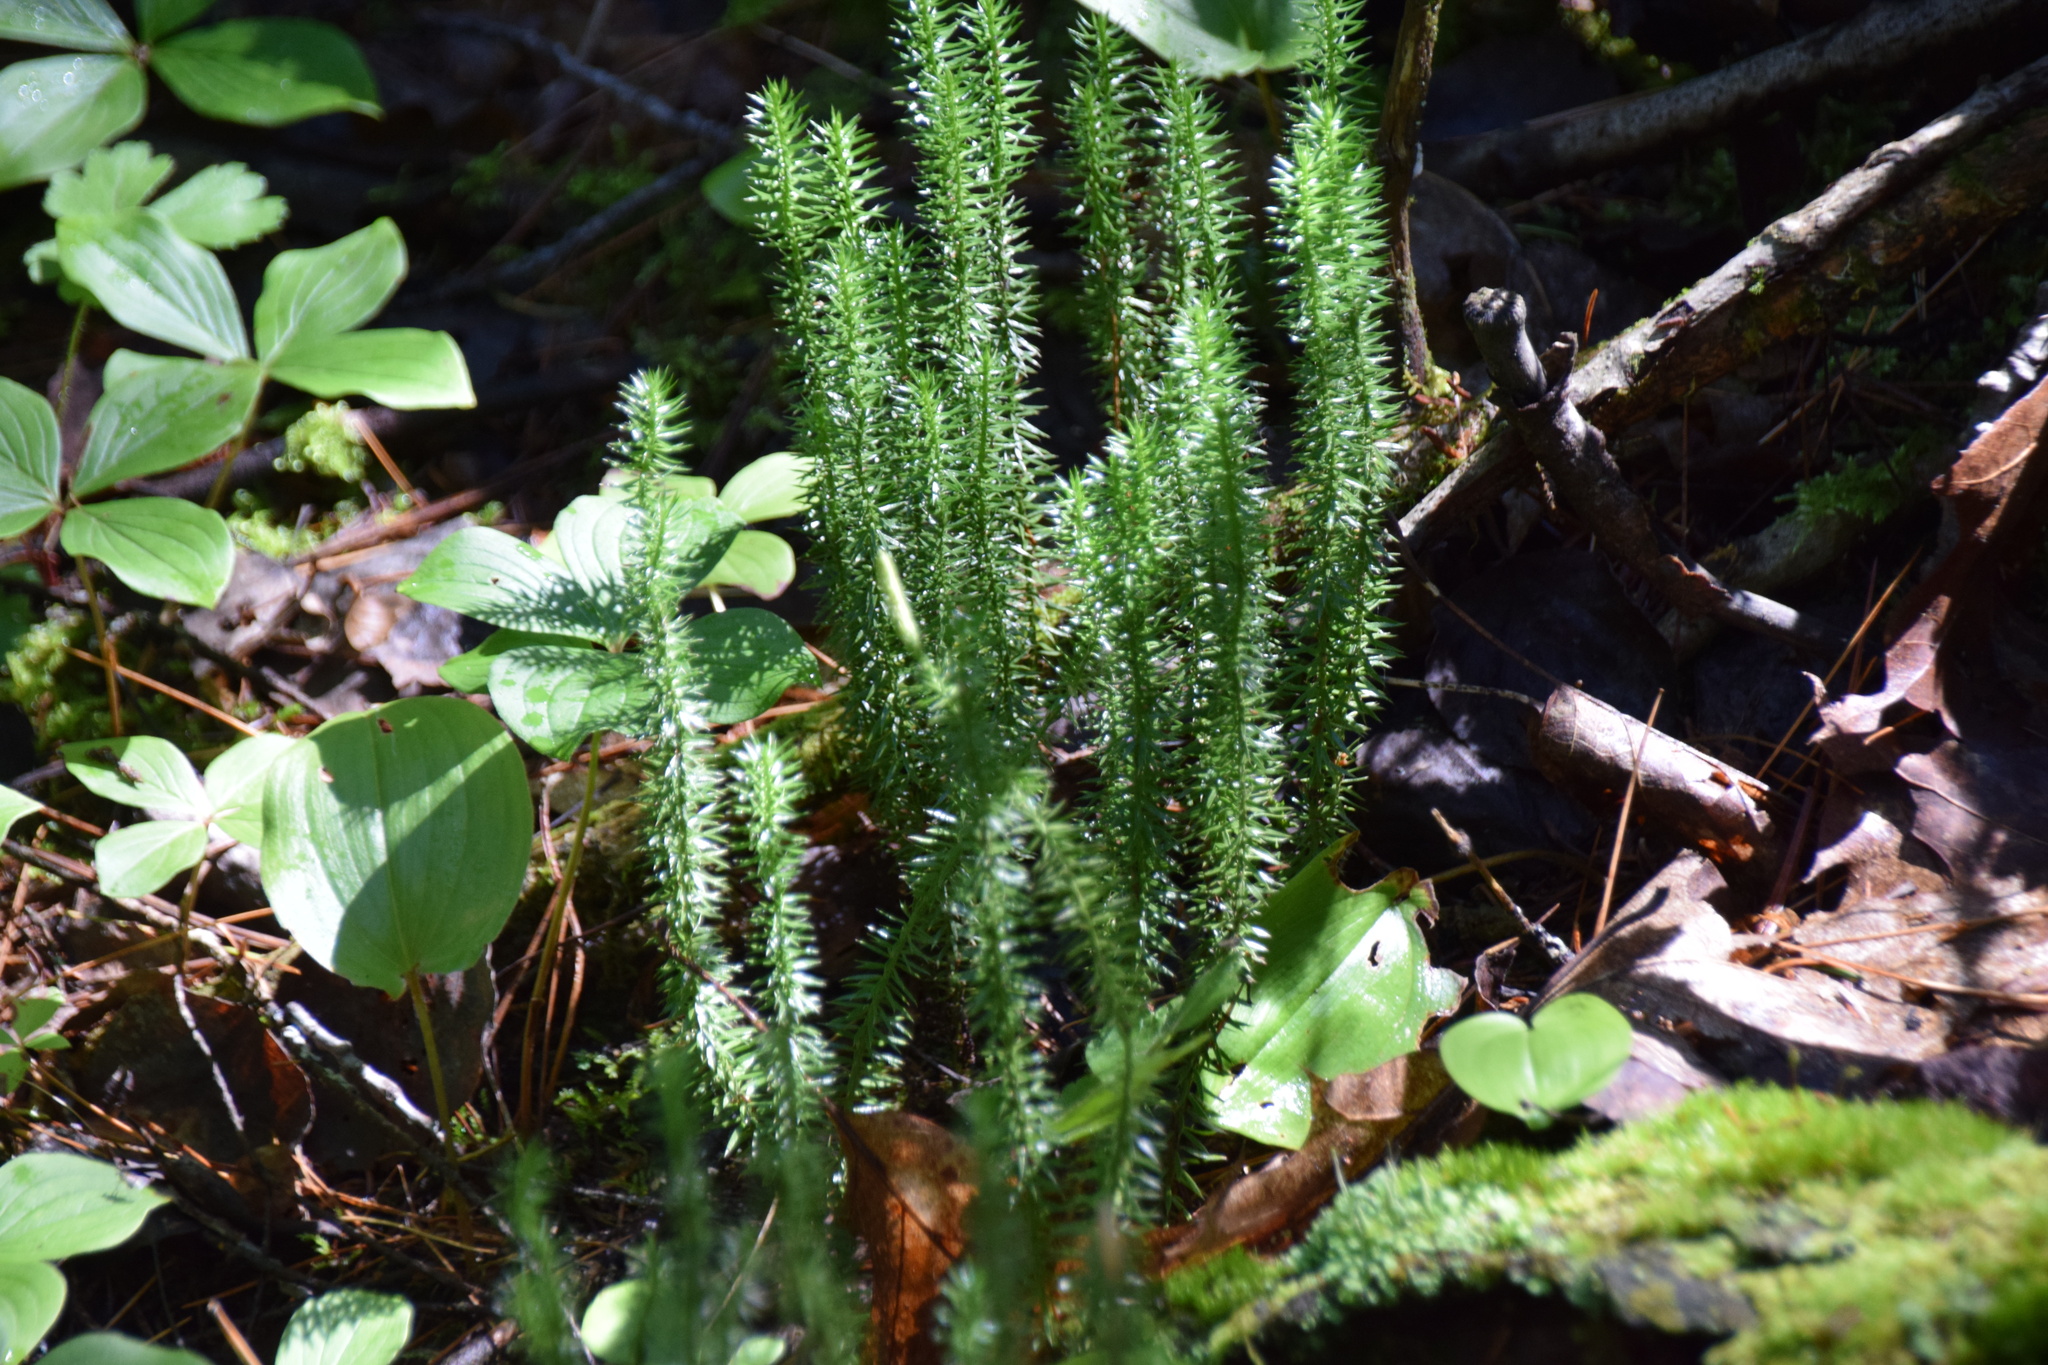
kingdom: Plantae
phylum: Tracheophyta
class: Lycopodiopsida
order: Lycopodiales
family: Lycopodiaceae
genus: Spinulum
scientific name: Spinulum annotinum
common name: Interrupted club-moss
